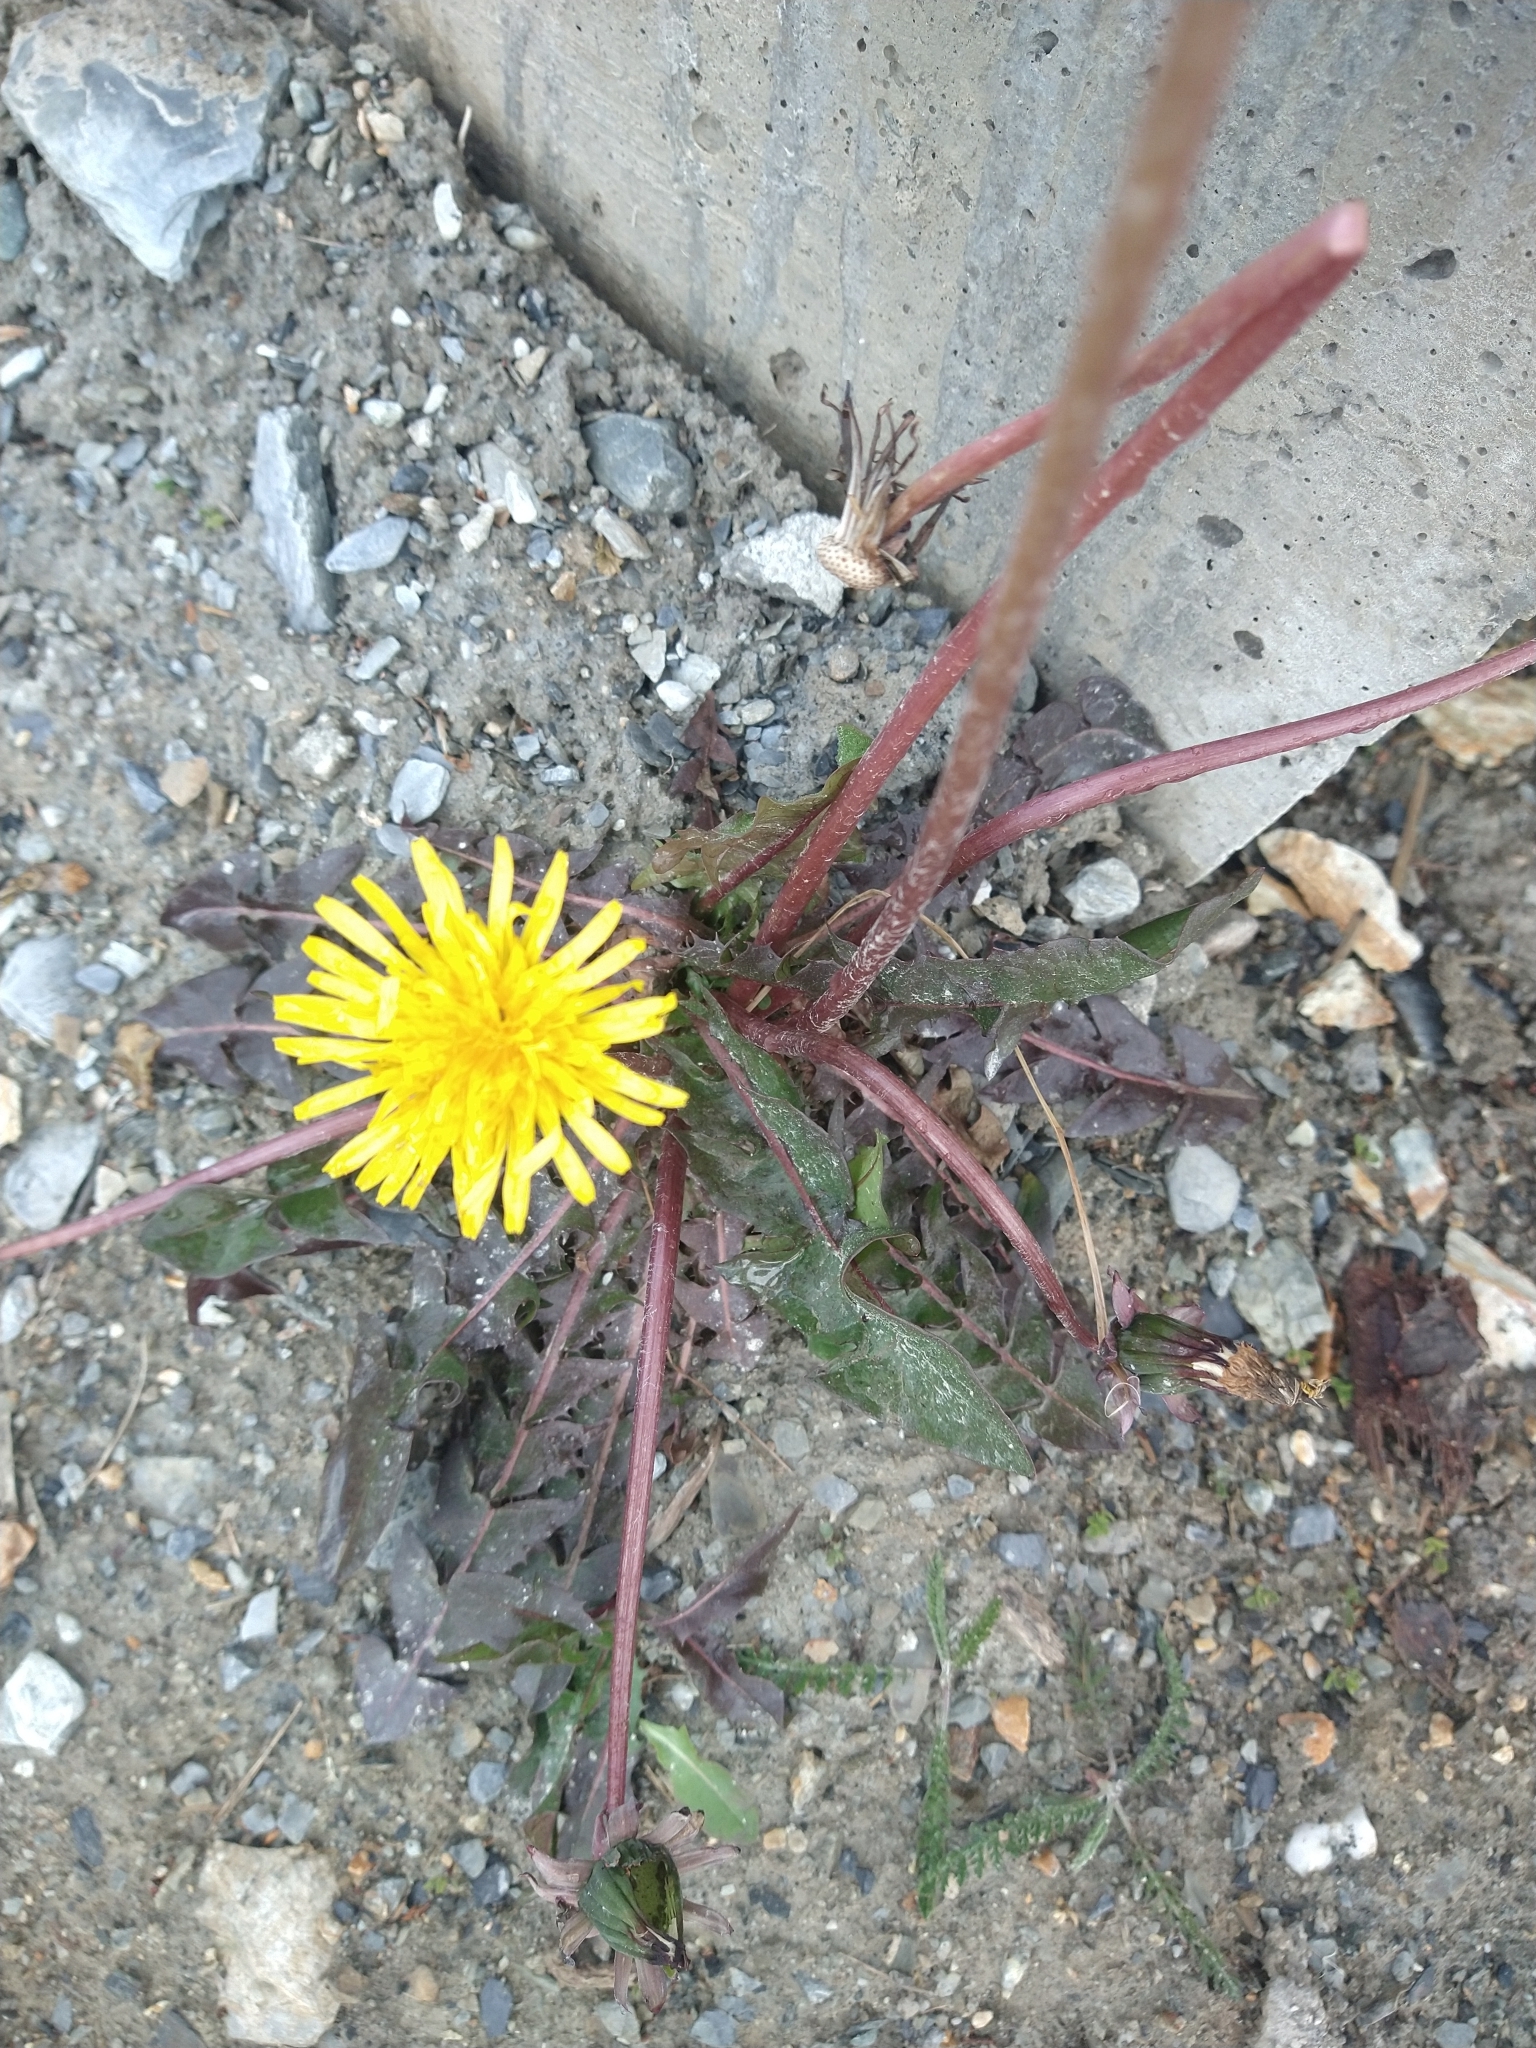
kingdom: Plantae
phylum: Tracheophyta
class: Magnoliopsida
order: Asterales
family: Asteraceae
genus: Taraxacum
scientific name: Taraxacum officinale
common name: Common dandelion
